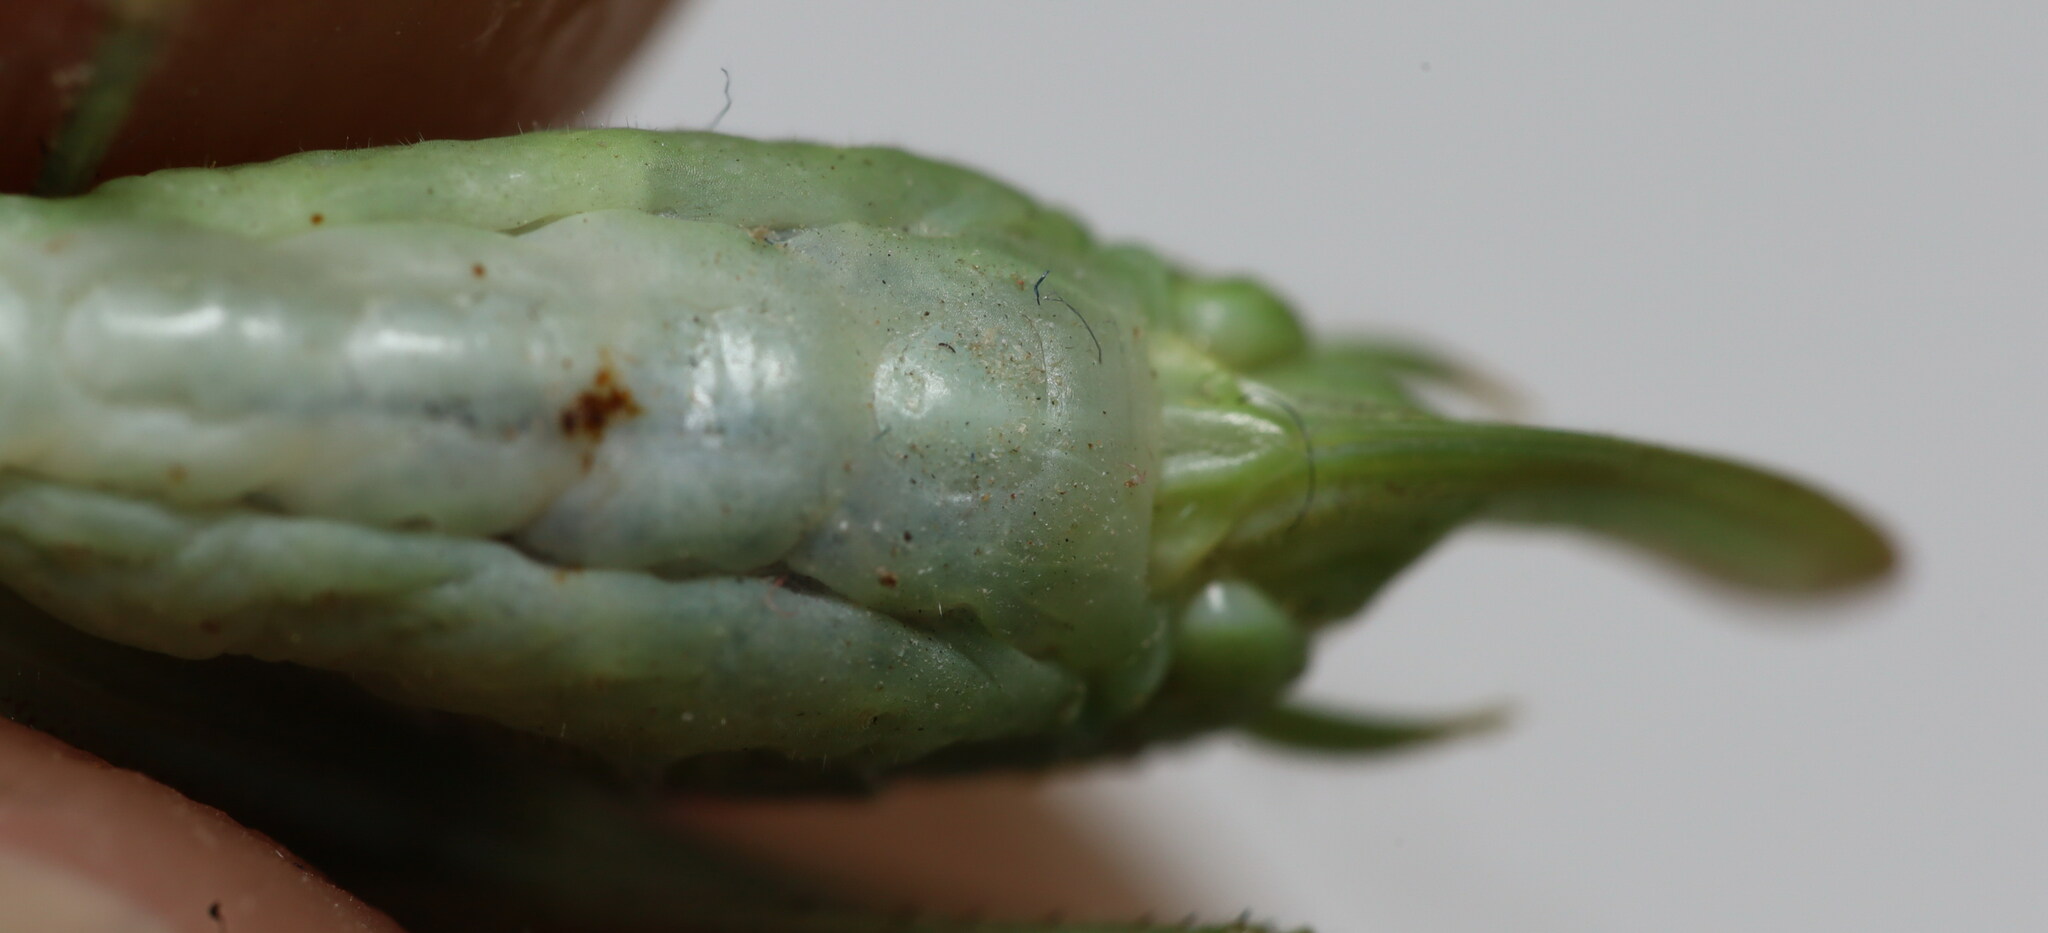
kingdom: Animalia
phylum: Arthropoda
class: Insecta
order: Orthoptera
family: Tettigoniidae
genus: Phaneroptera
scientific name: Phaneroptera nana
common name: Southern sickle bush-cricket
